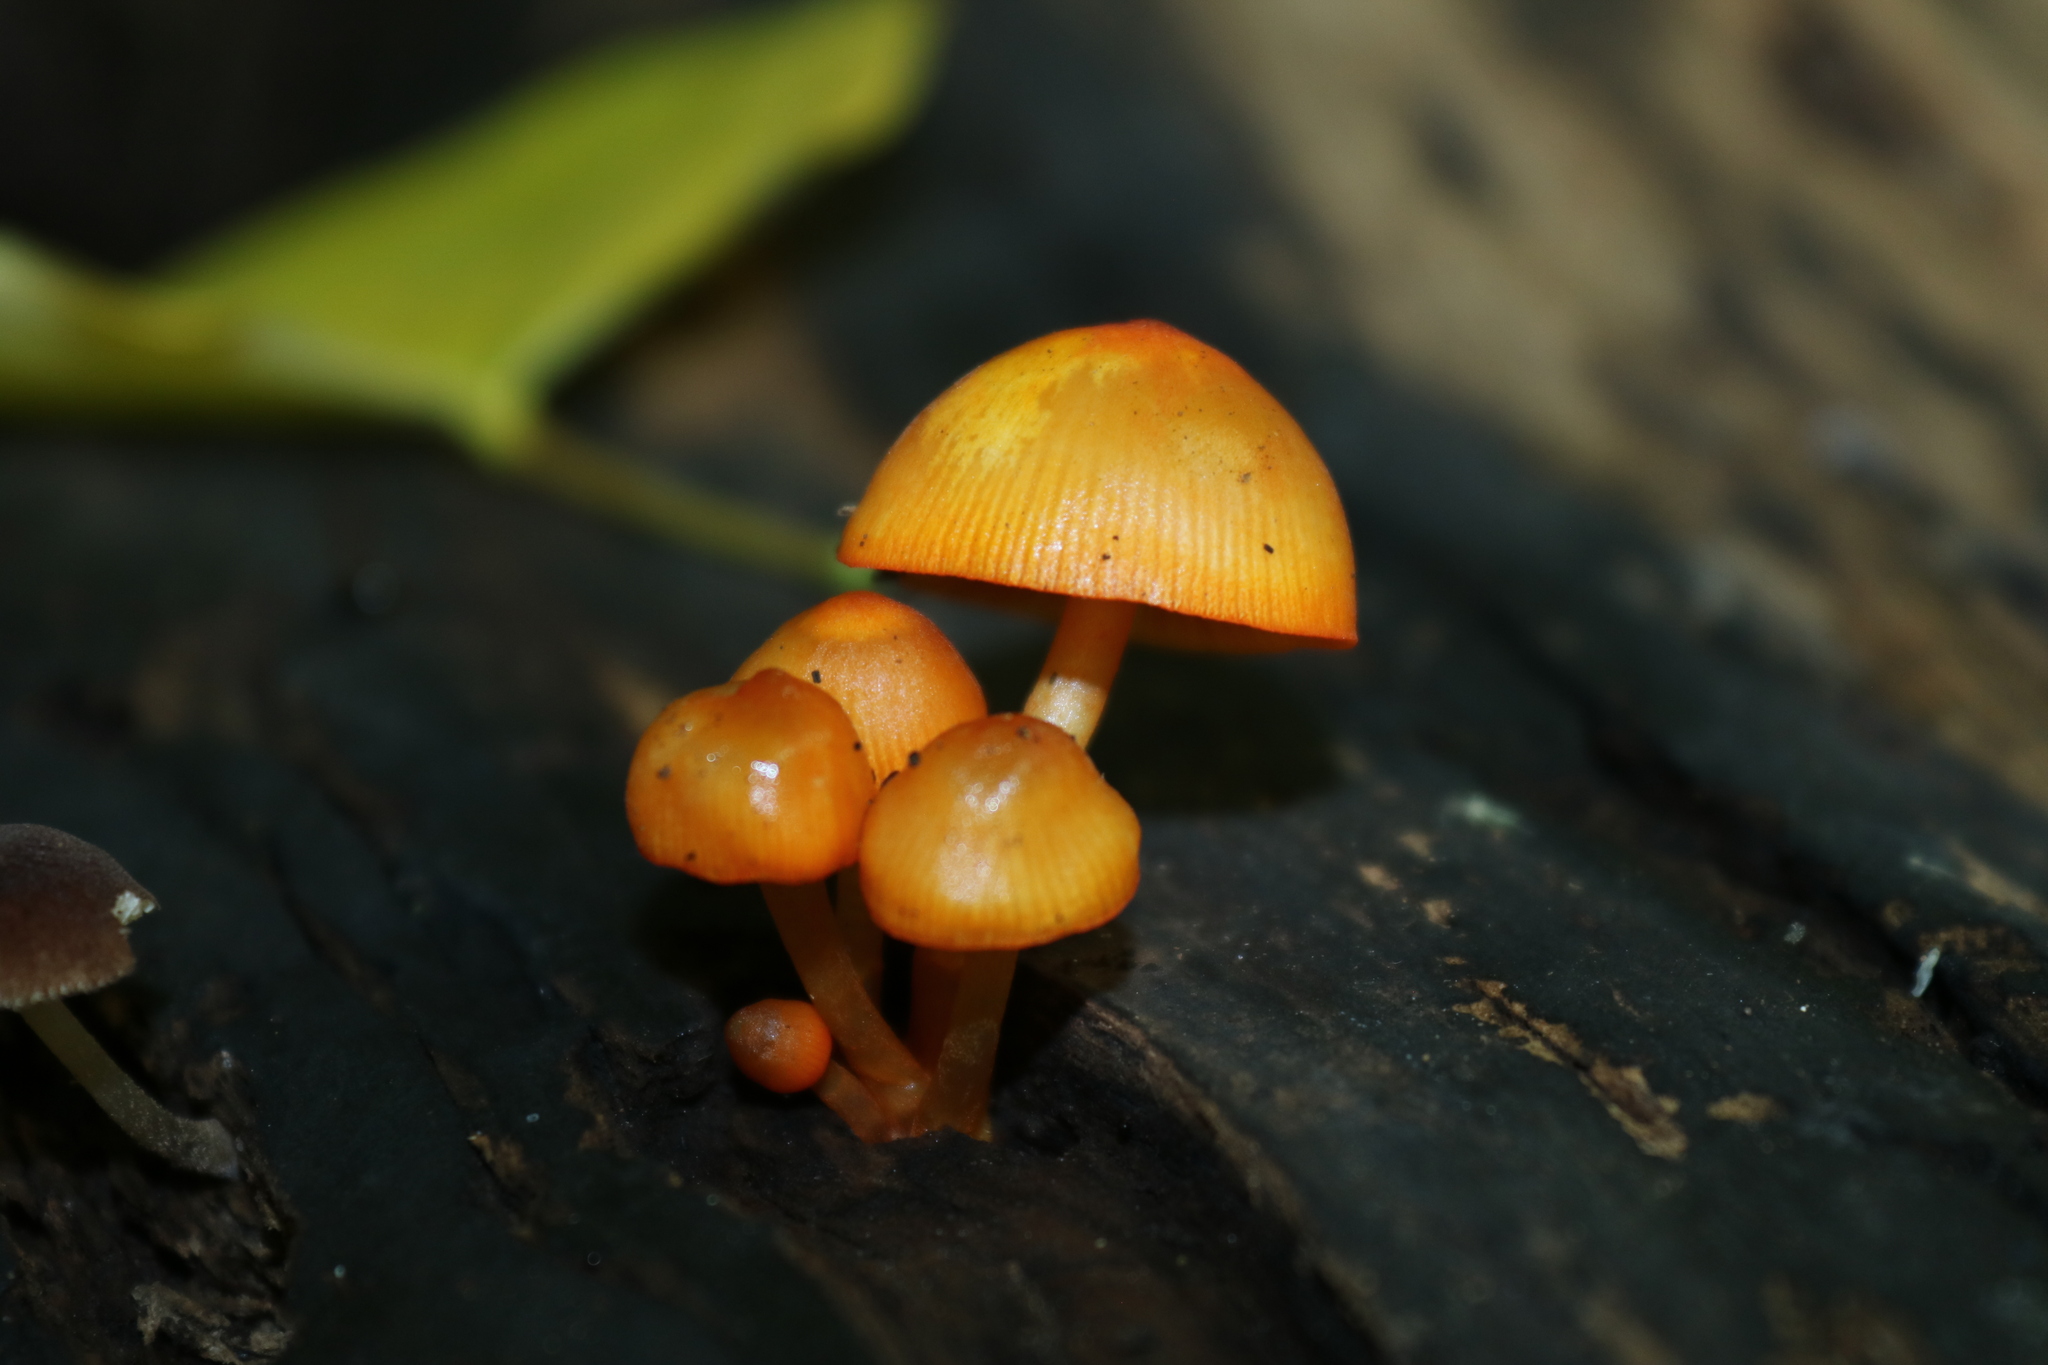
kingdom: Fungi
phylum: Basidiomycota
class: Agaricomycetes
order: Agaricales
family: Mycenaceae
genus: Mycena
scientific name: Mycena leaiana
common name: Orange mycena
